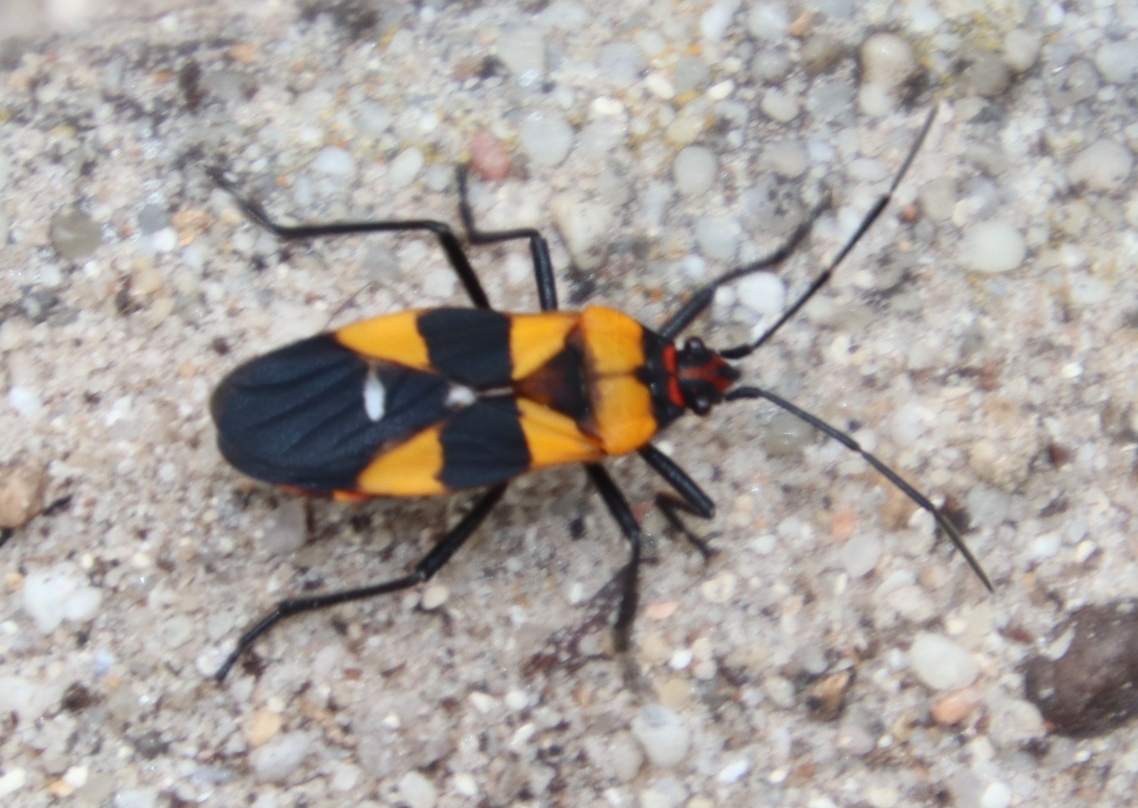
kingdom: Animalia
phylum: Arthropoda
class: Insecta
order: Hemiptera
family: Lygaeidae
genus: Oncopeltus
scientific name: Oncopeltus famelicus
